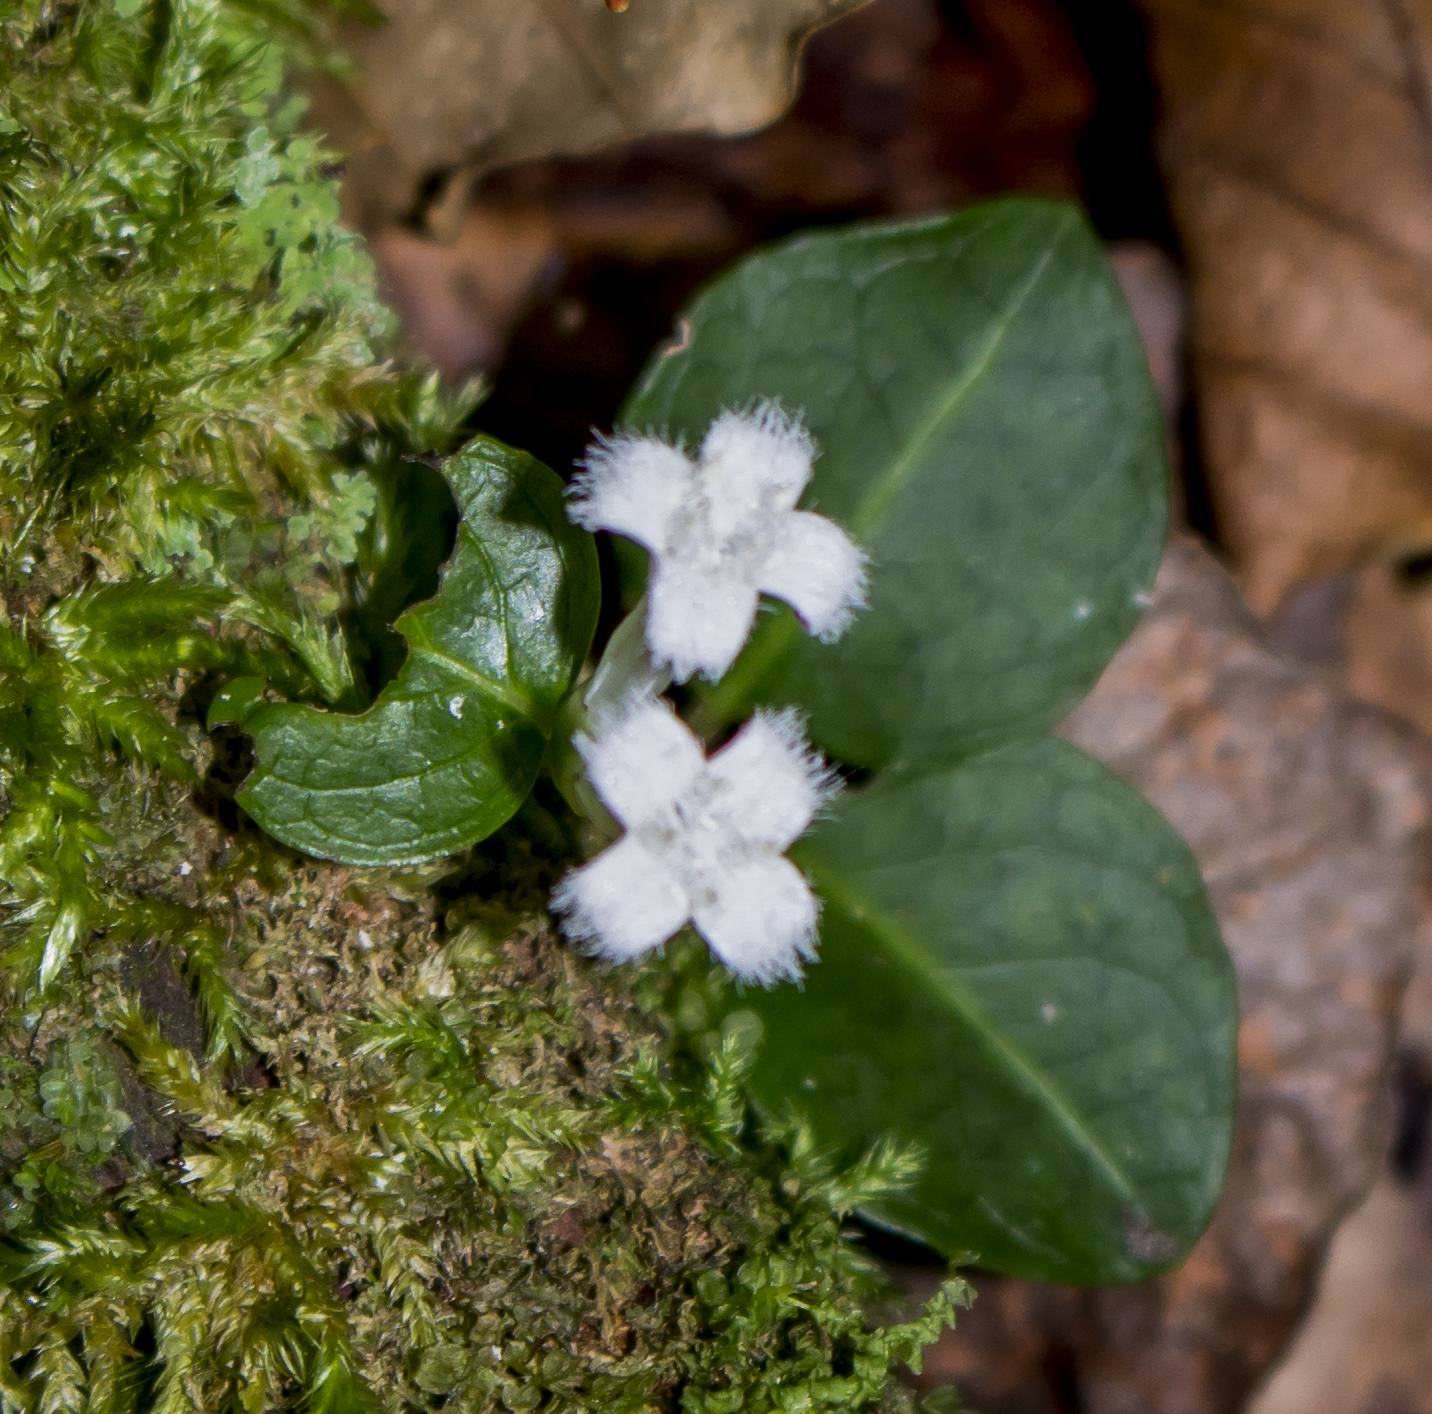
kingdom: Plantae
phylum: Tracheophyta
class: Magnoliopsida
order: Gentianales
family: Rubiaceae
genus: Mitchella
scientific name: Mitchella repens
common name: Partridge-berry
